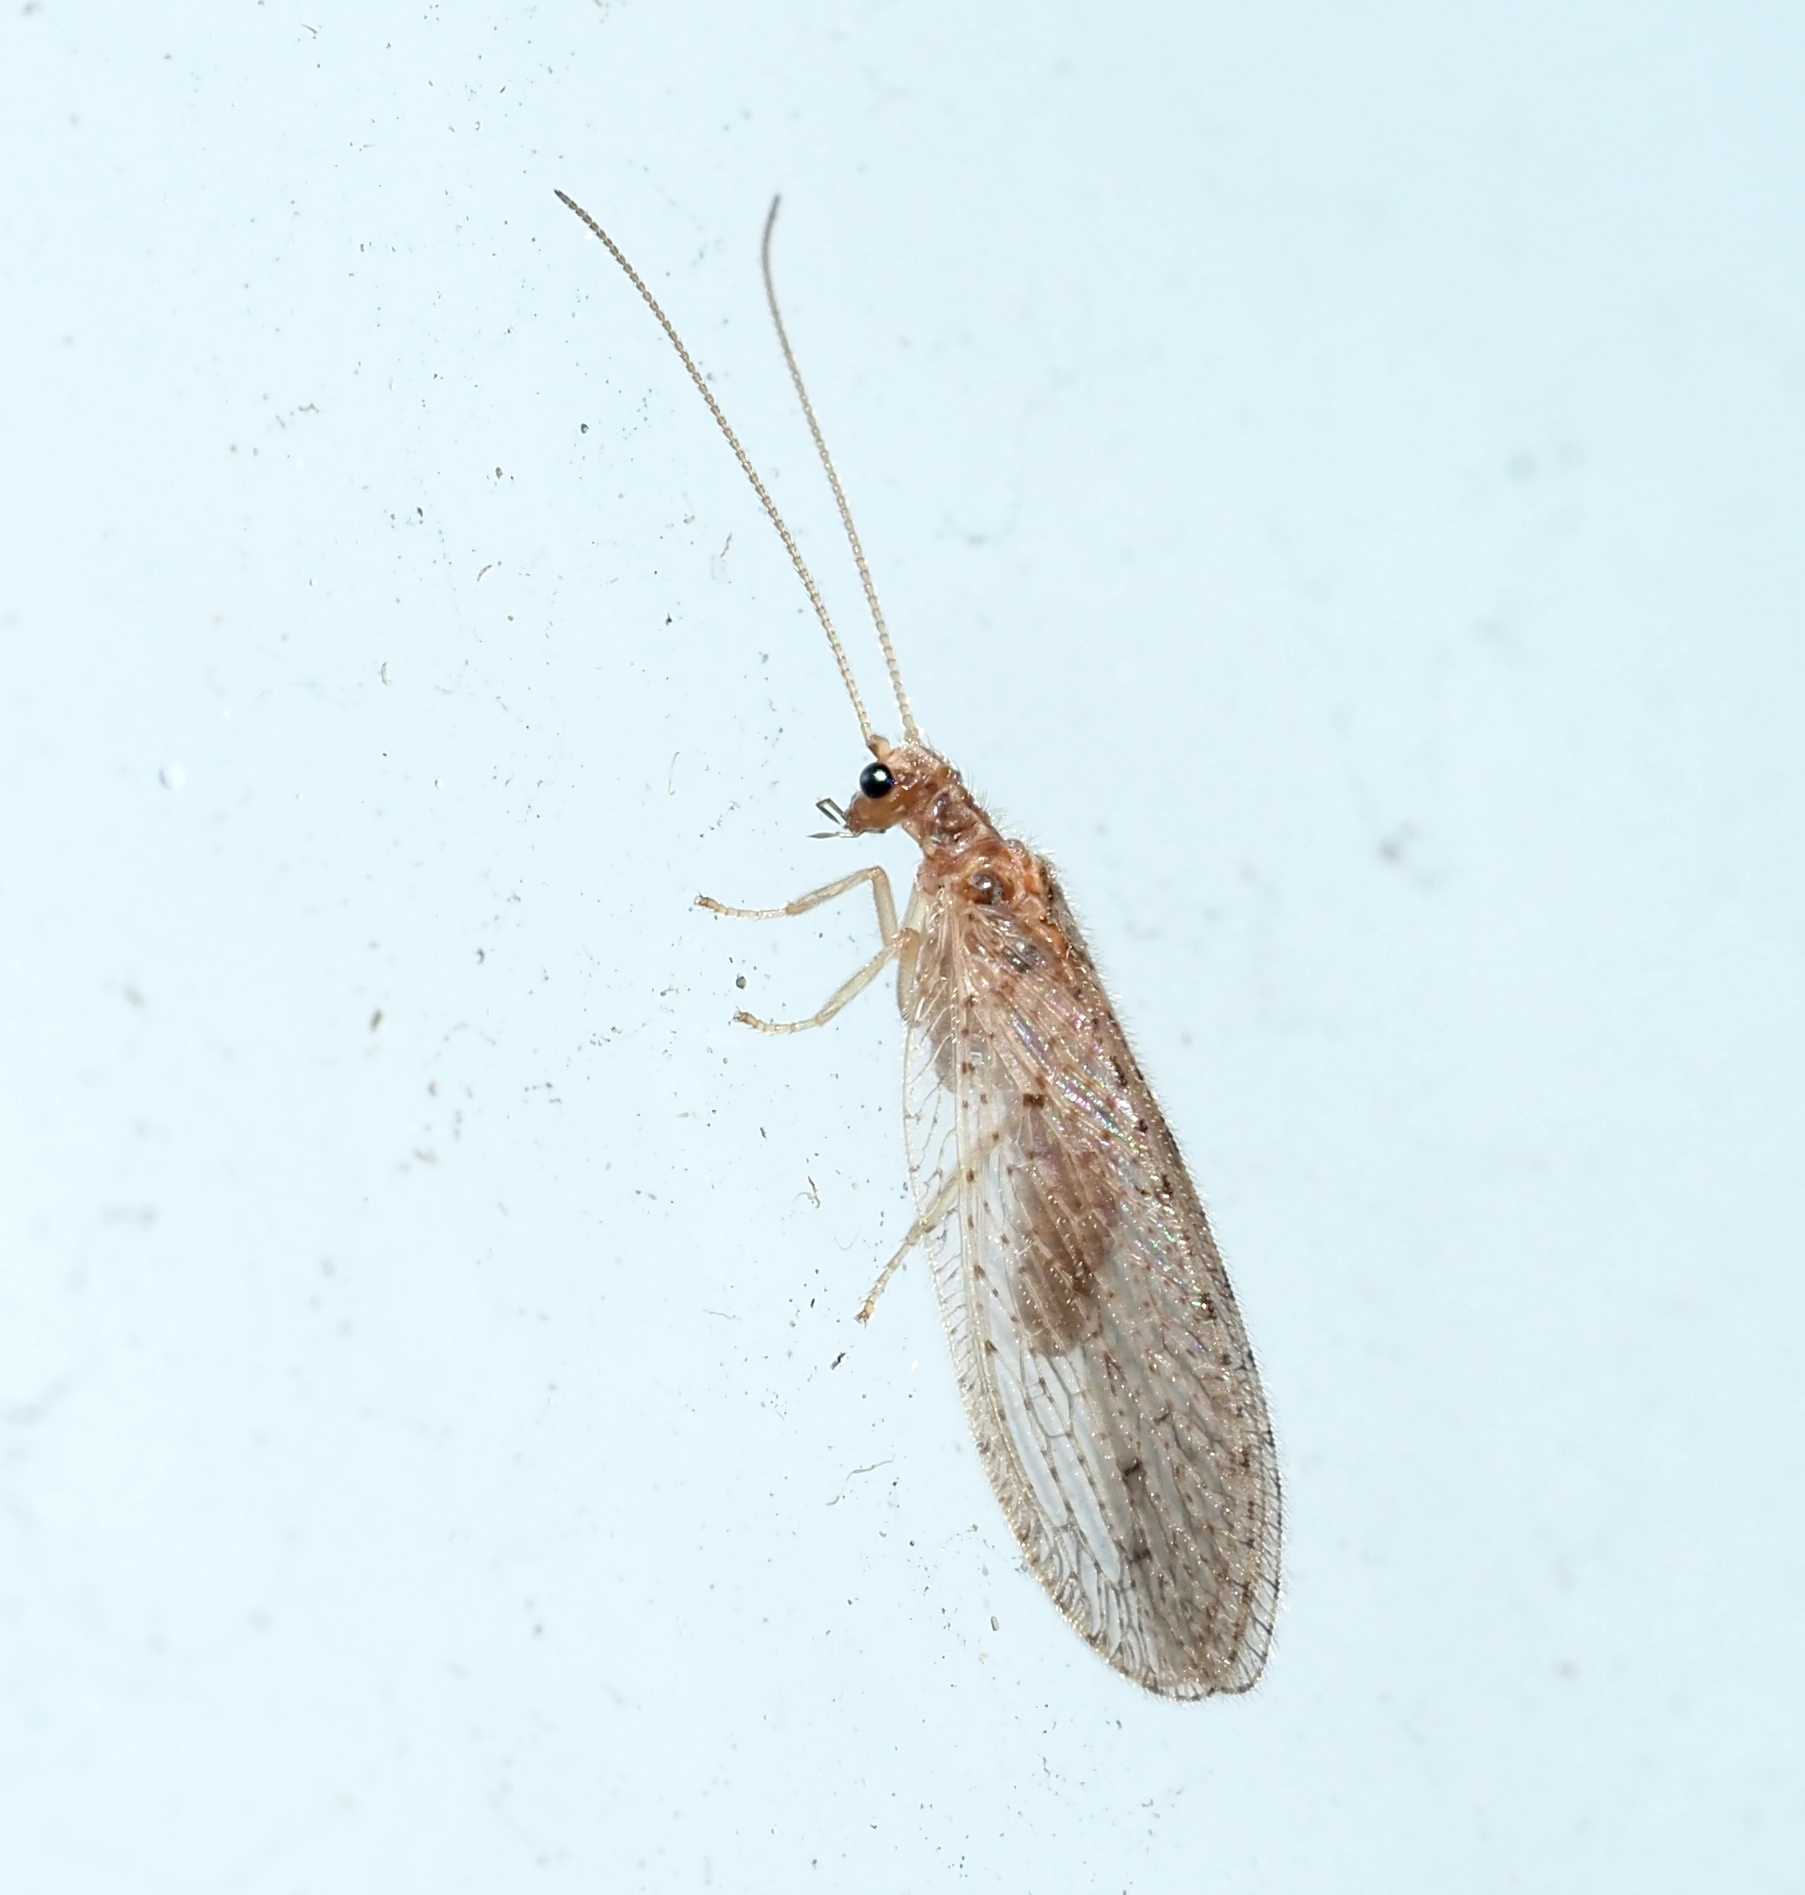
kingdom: Animalia
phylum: Arthropoda
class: Insecta
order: Neuroptera
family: Hemerobiidae
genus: Micromus
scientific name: Micromus subanticus
